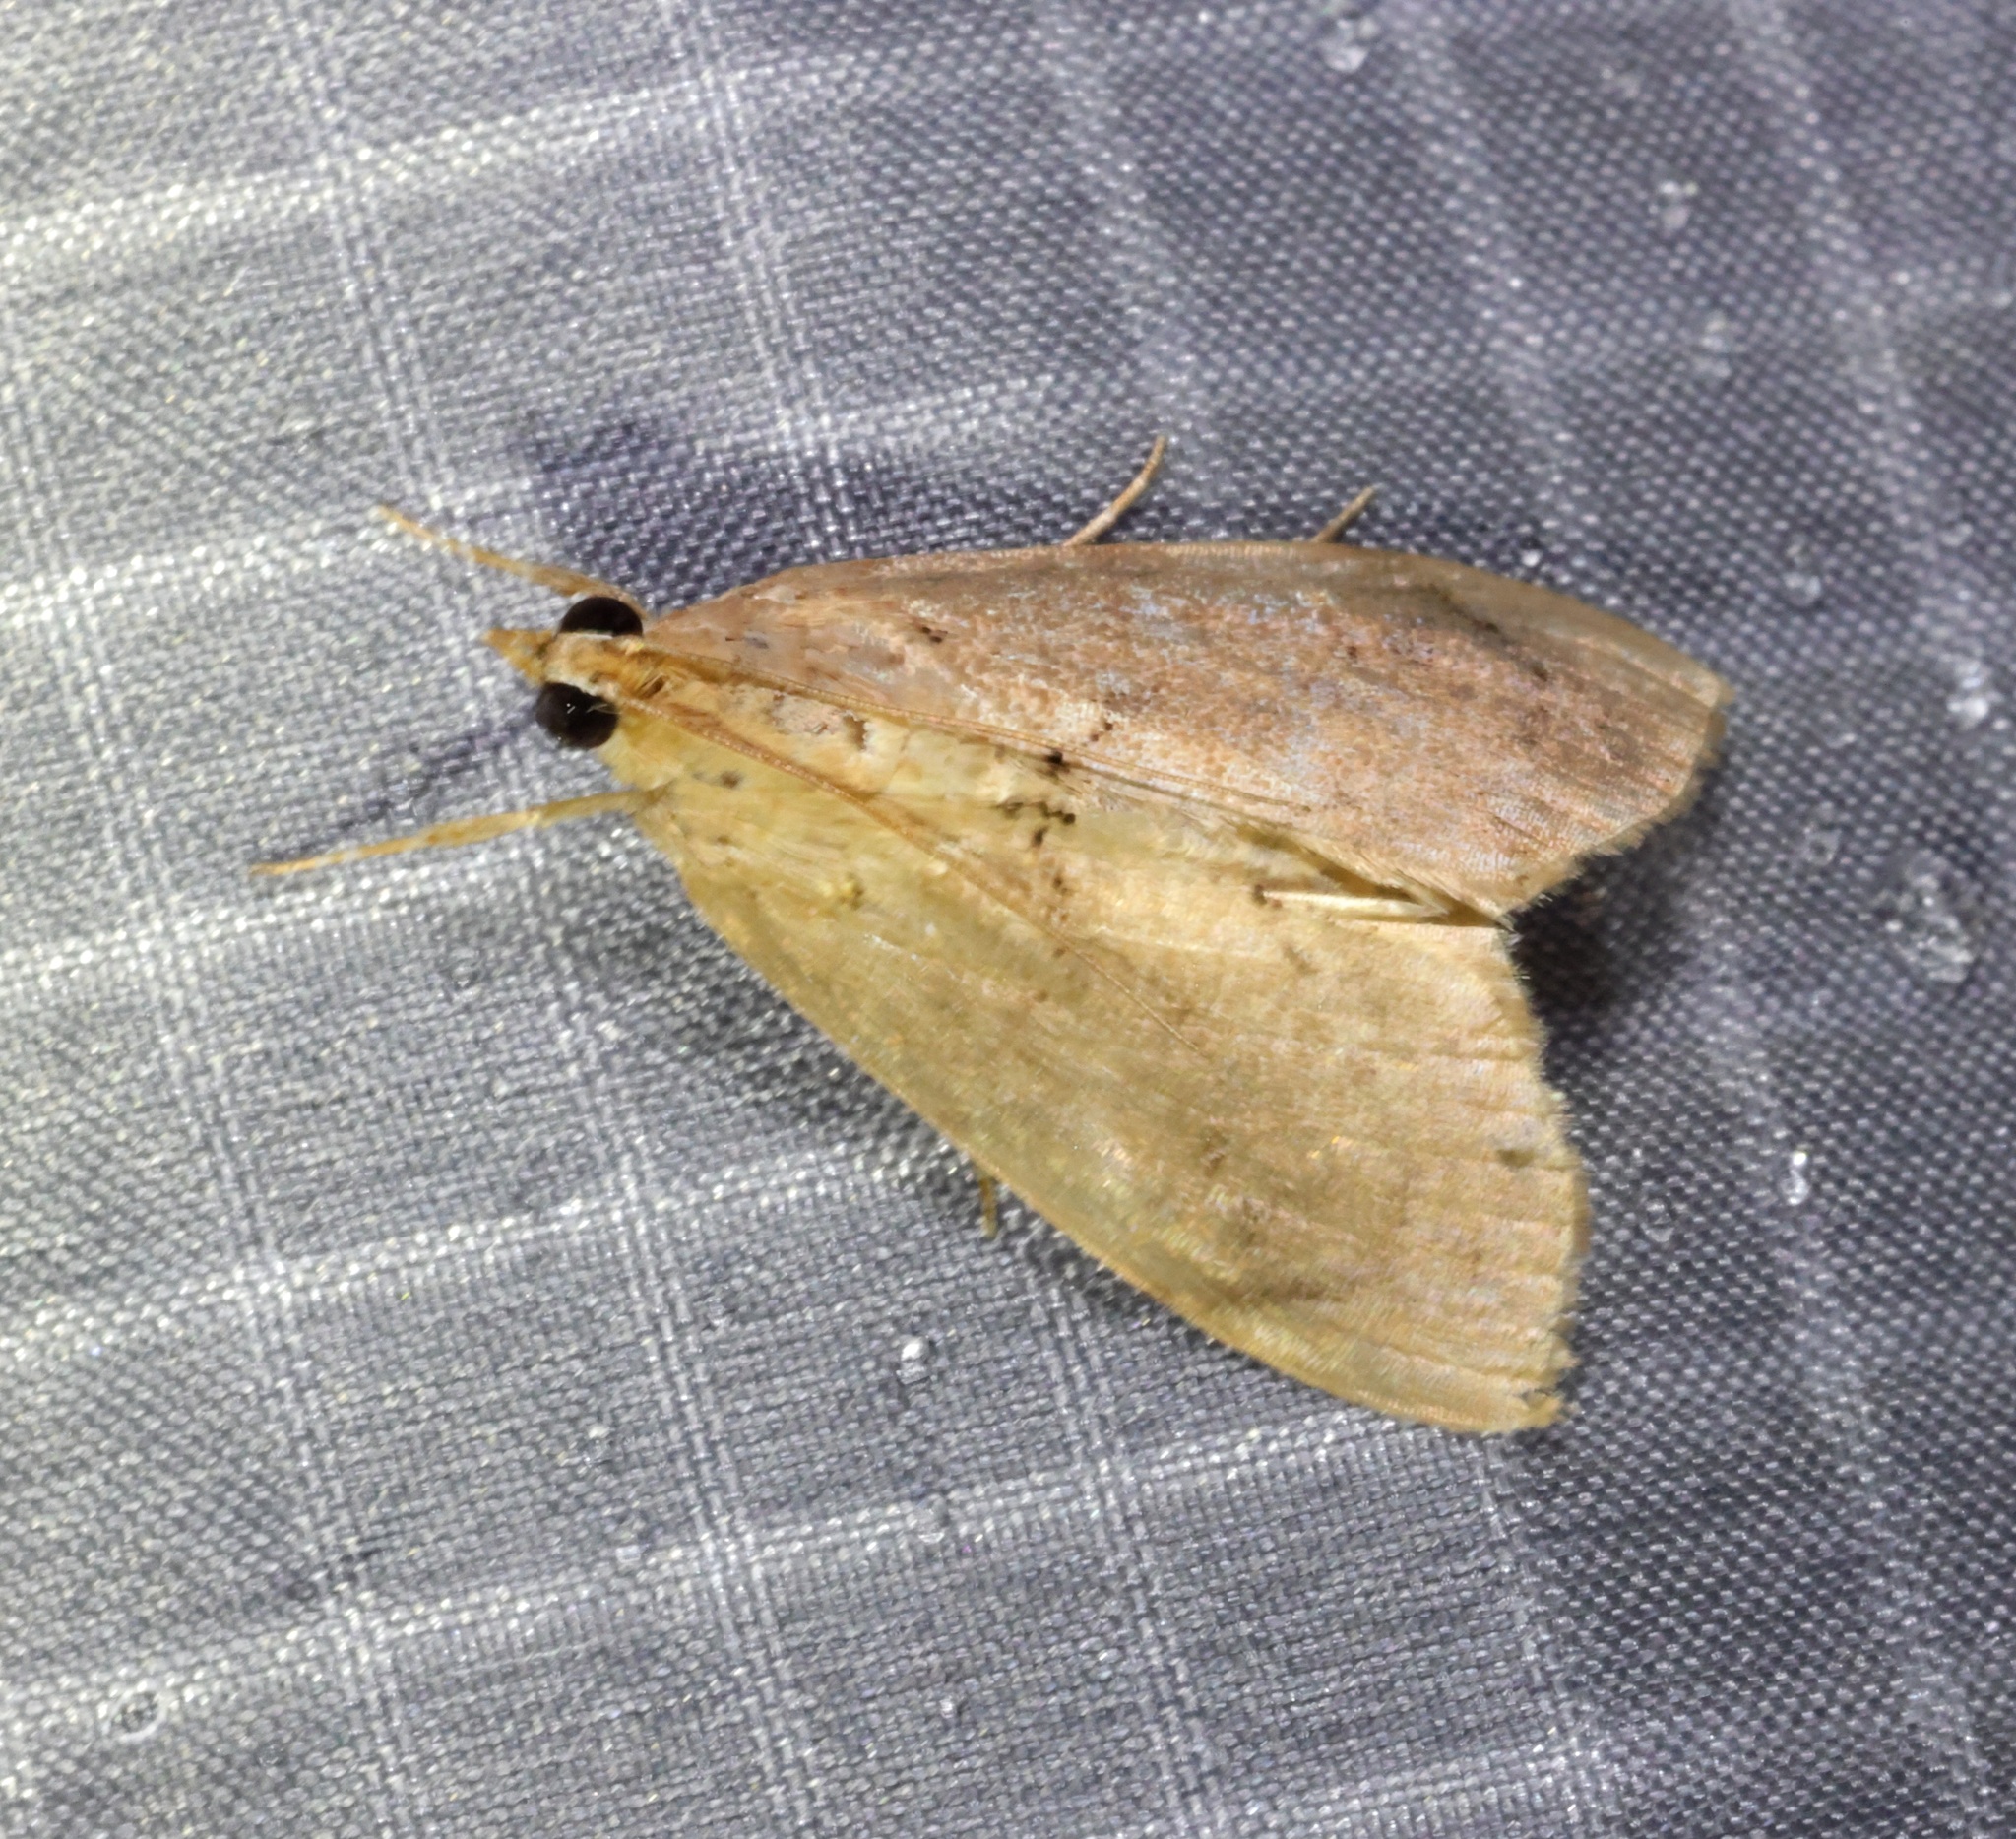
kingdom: Animalia
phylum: Arthropoda
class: Insecta
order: Lepidoptera
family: Crambidae
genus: Crocidolomia
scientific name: Crocidolomia pavonana
